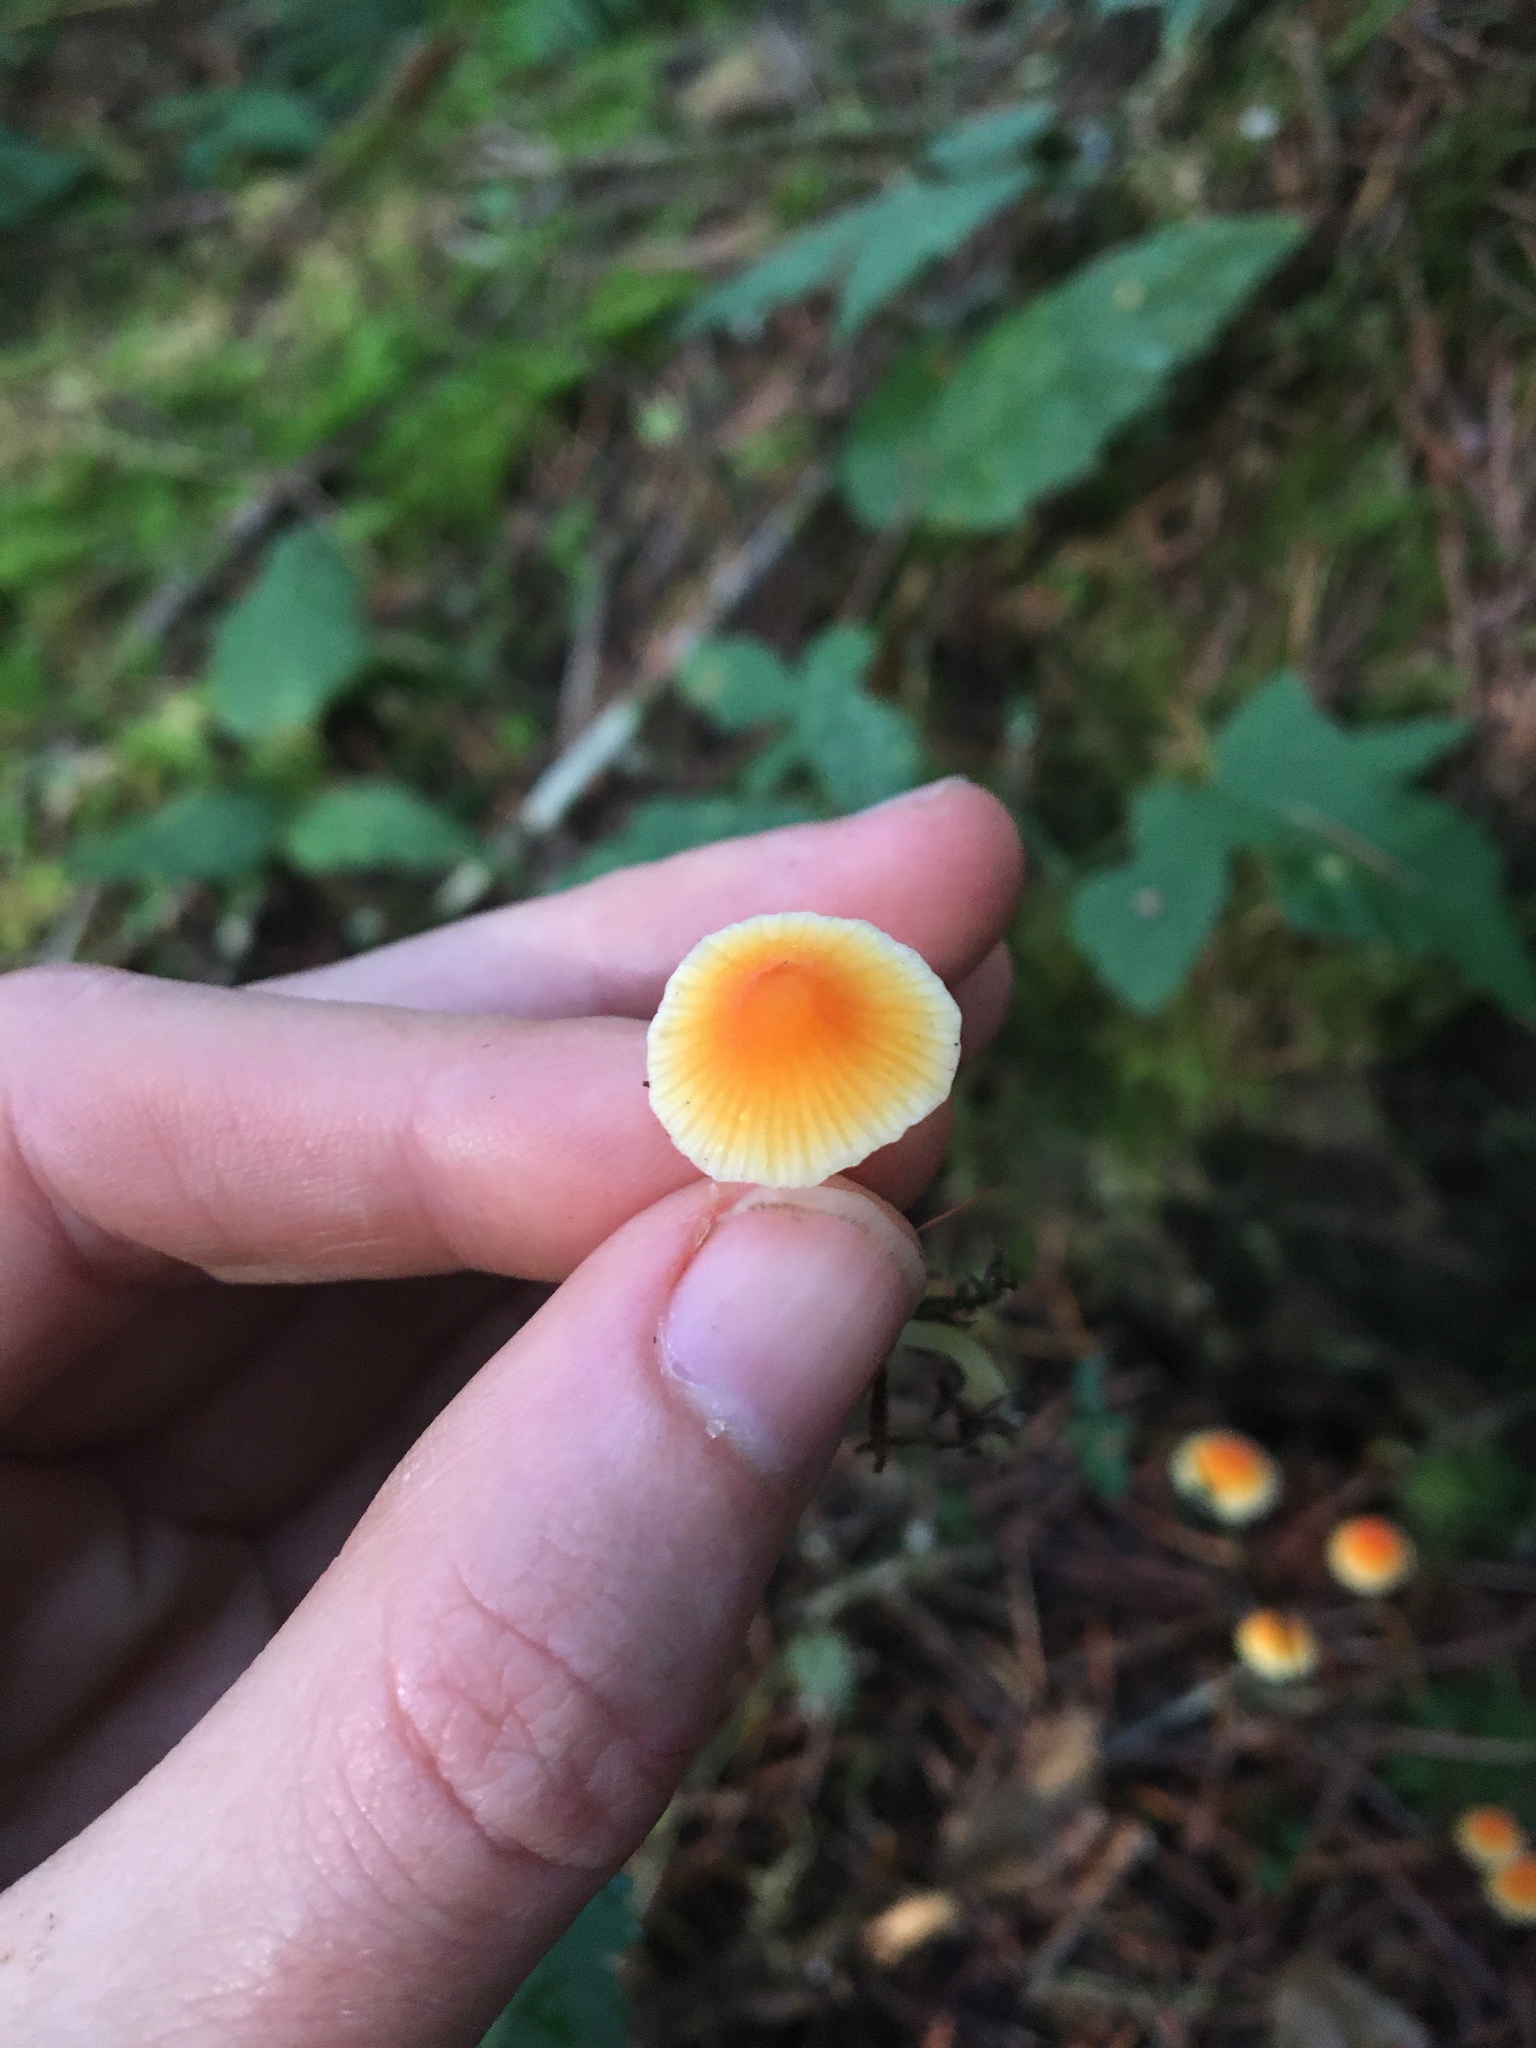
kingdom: Fungi
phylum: Basidiomycota
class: Agaricomycetes
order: Agaricales
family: Mycenaceae
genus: Atheniella
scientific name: Atheniella aurantiidisca
